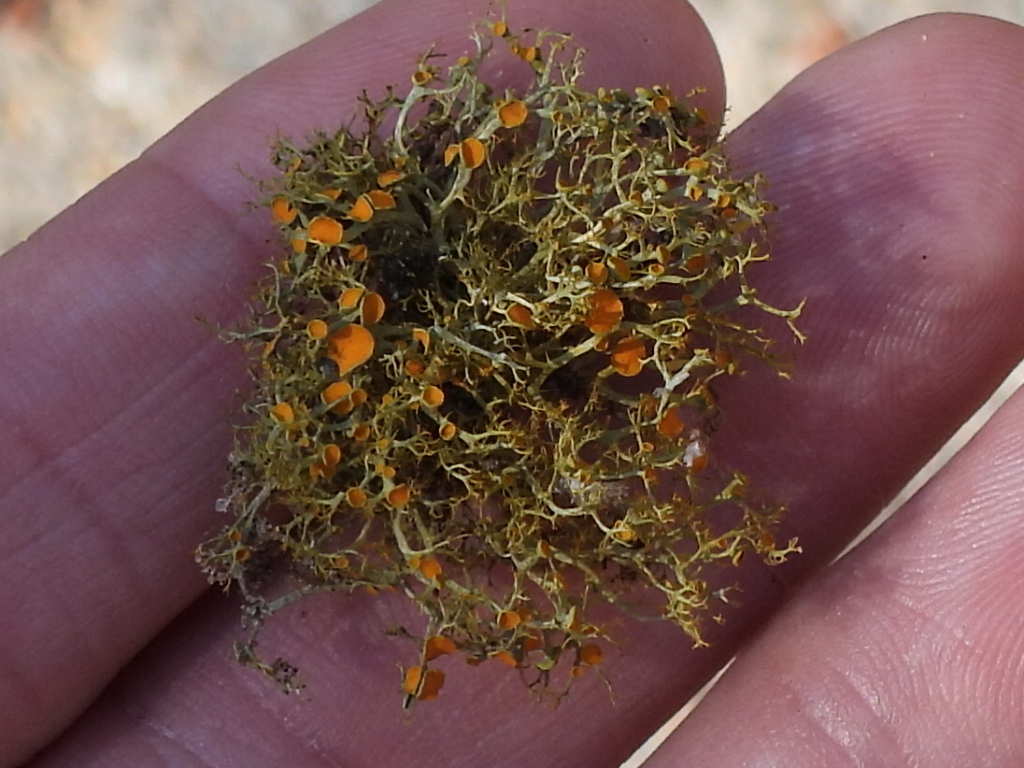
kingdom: Fungi
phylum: Ascomycota
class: Lecanoromycetes
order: Teloschistales
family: Teloschistaceae
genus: Teloschistes
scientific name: Teloschistes exilis
